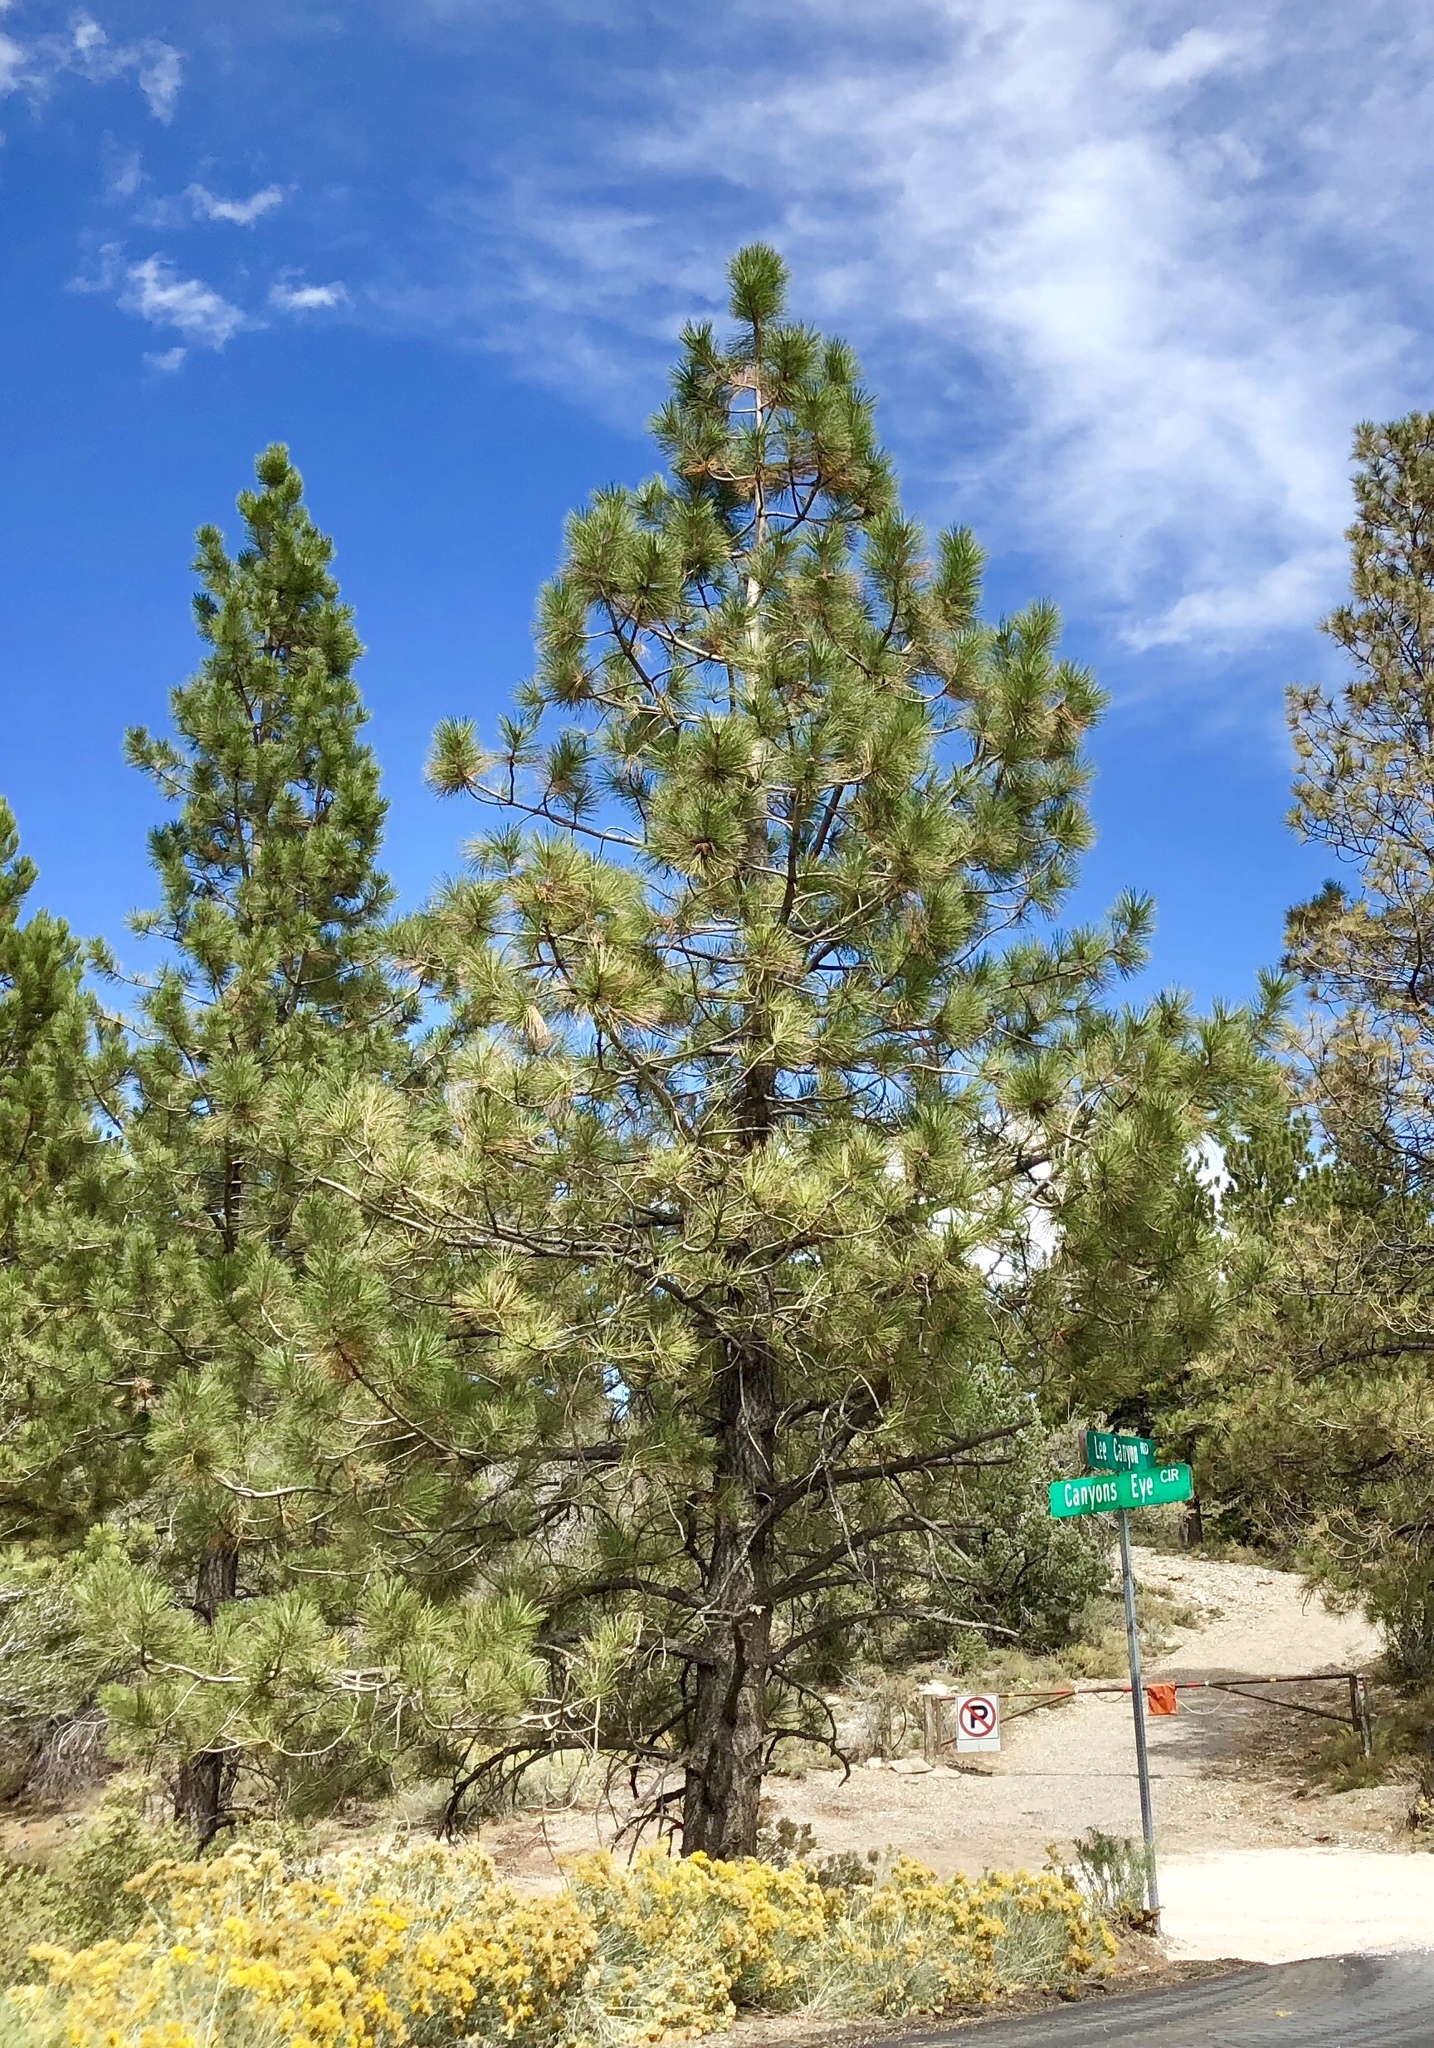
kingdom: Plantae
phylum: Tracheophyta
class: Pinopsida
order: Pinales
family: Pinaceae
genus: Pinus
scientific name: Pinus ponderosa
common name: Western yellow-pine
